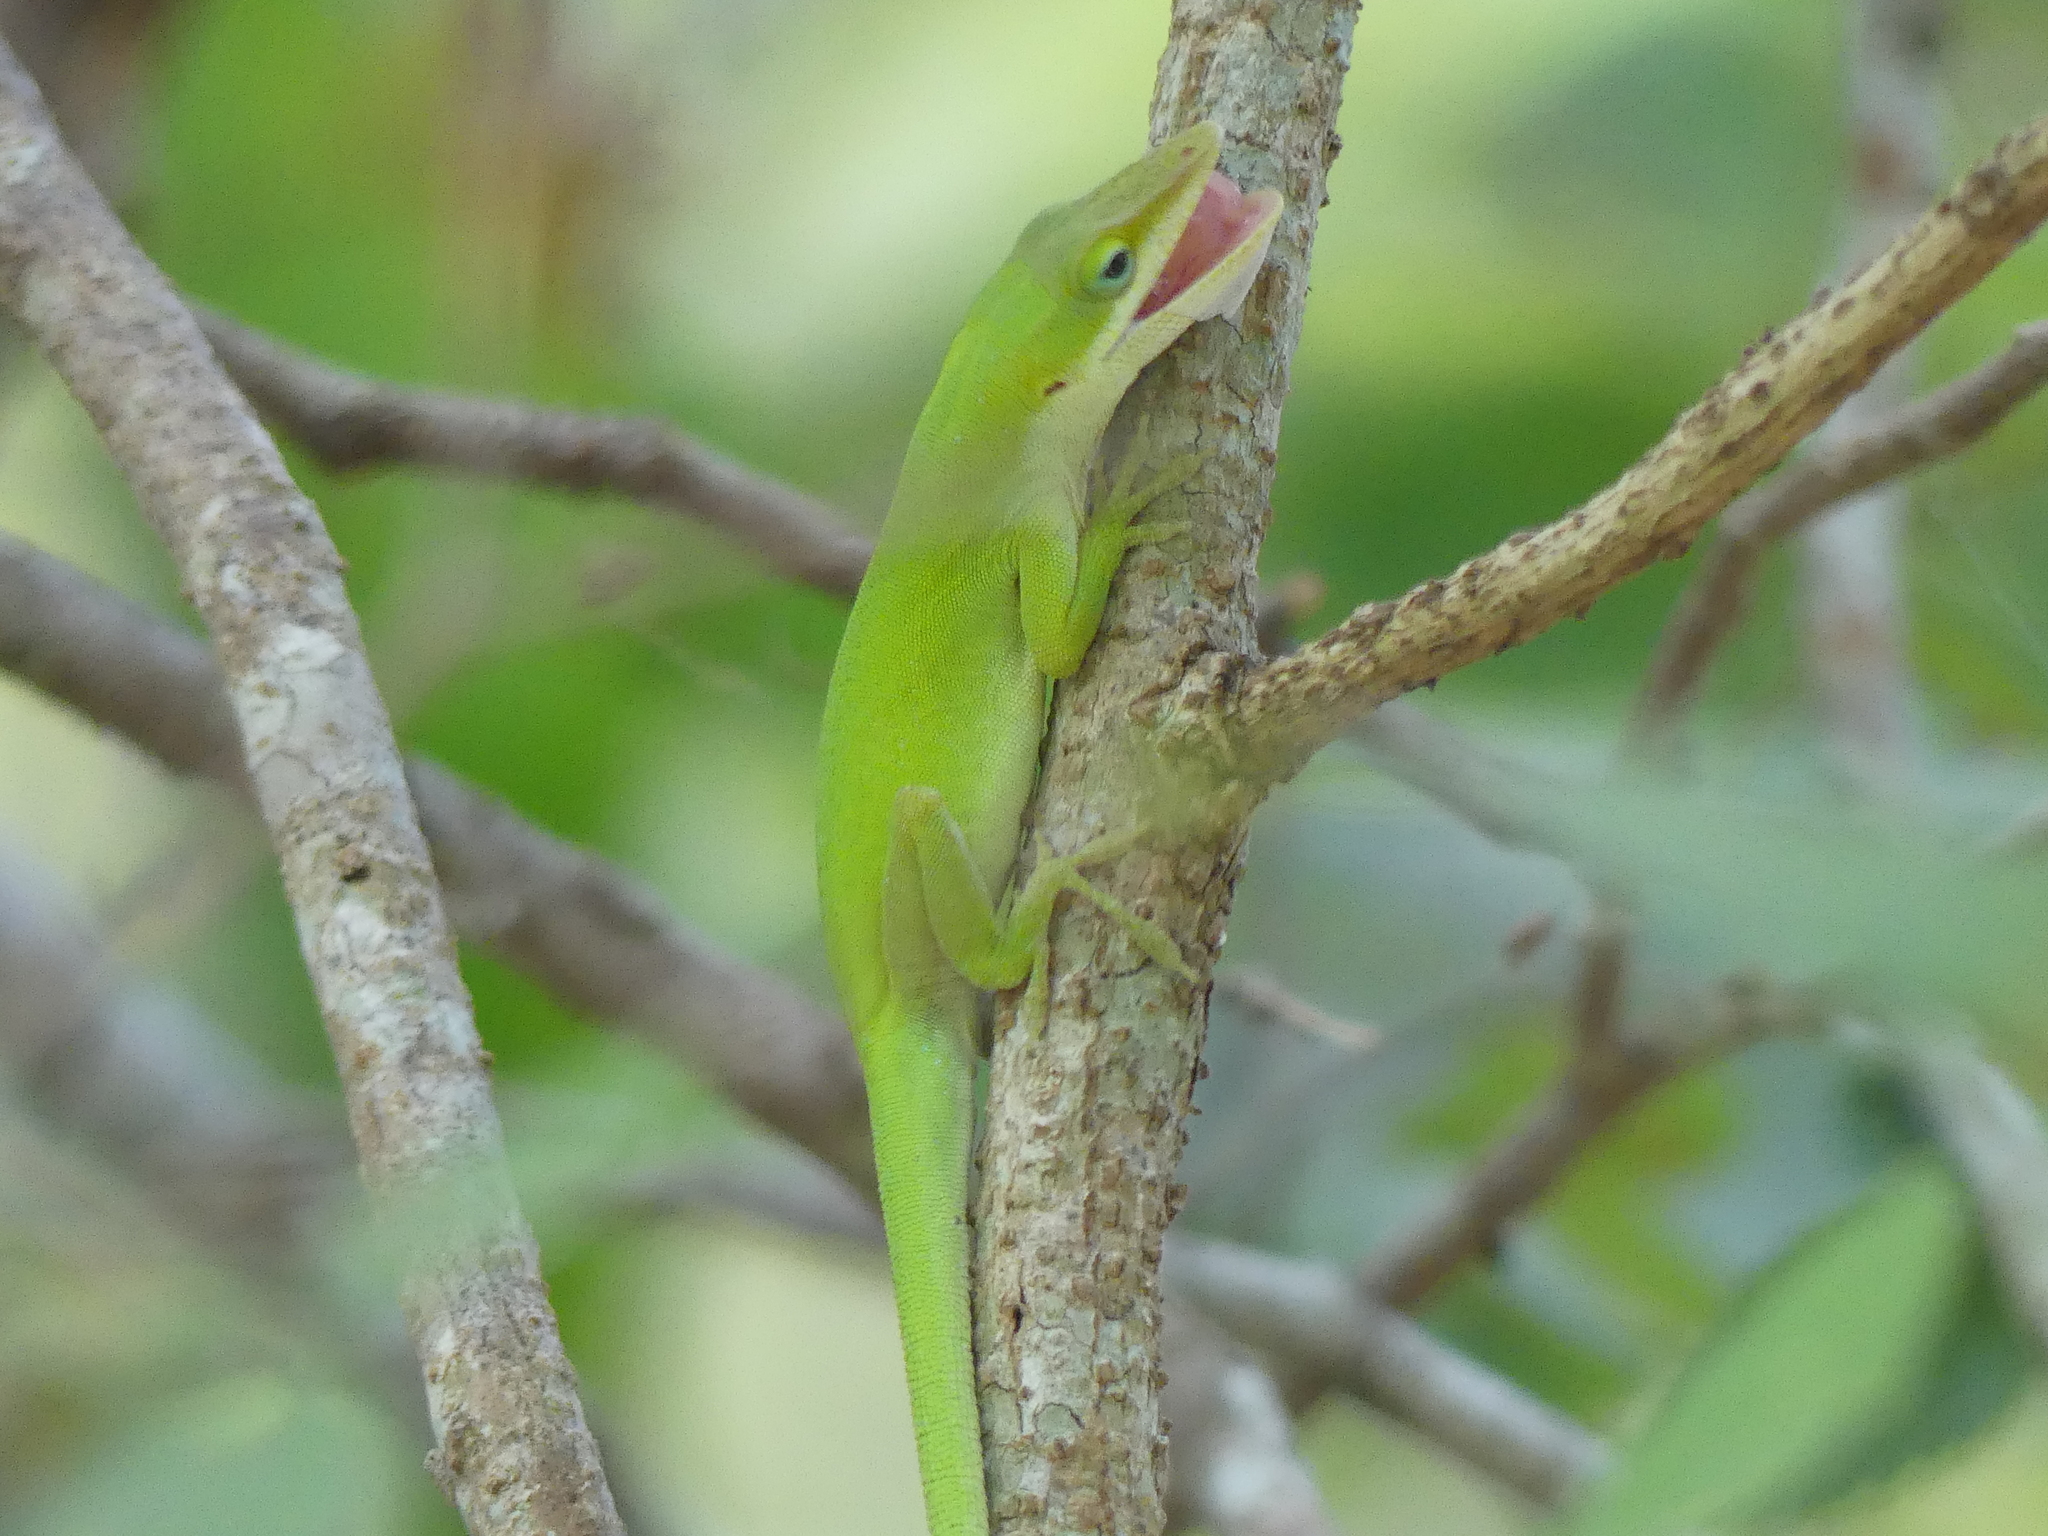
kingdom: Animalia
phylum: Chordata
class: Squamata
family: Dactyloidae
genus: Anolis
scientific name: Anolis carolinensis
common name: Green anole
